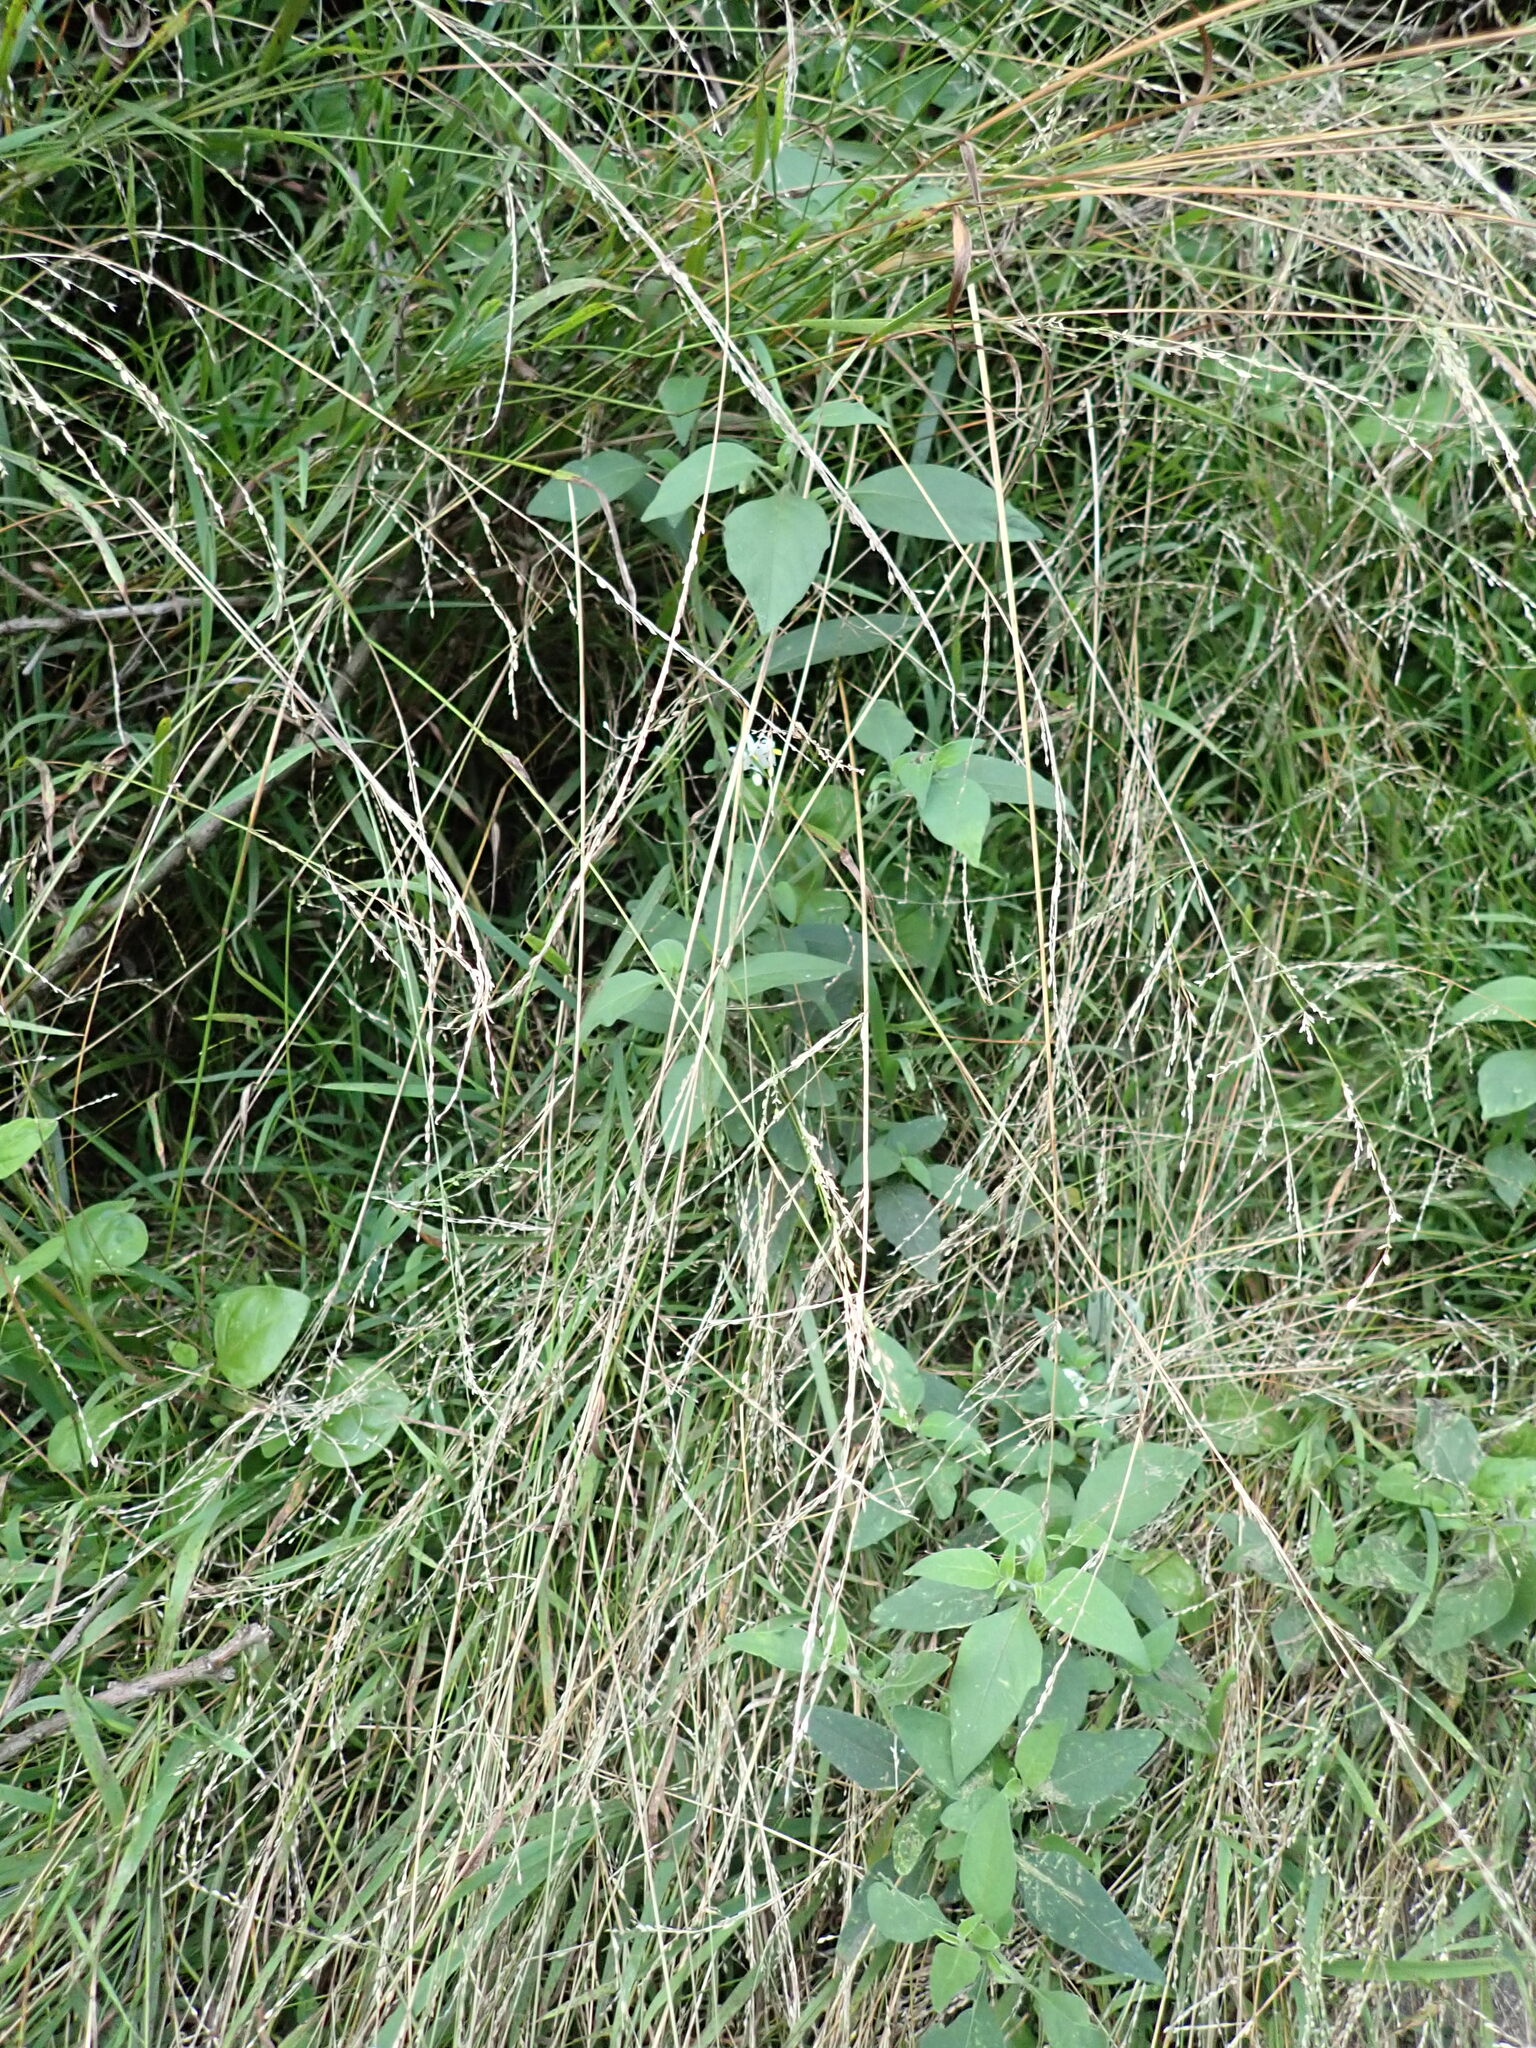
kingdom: Plantae
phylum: Tracheophyta
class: Magnoliopsida
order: Solanales
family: Solanaceae
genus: Solanum
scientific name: Solanum chenopodioides
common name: Tall nightshade
